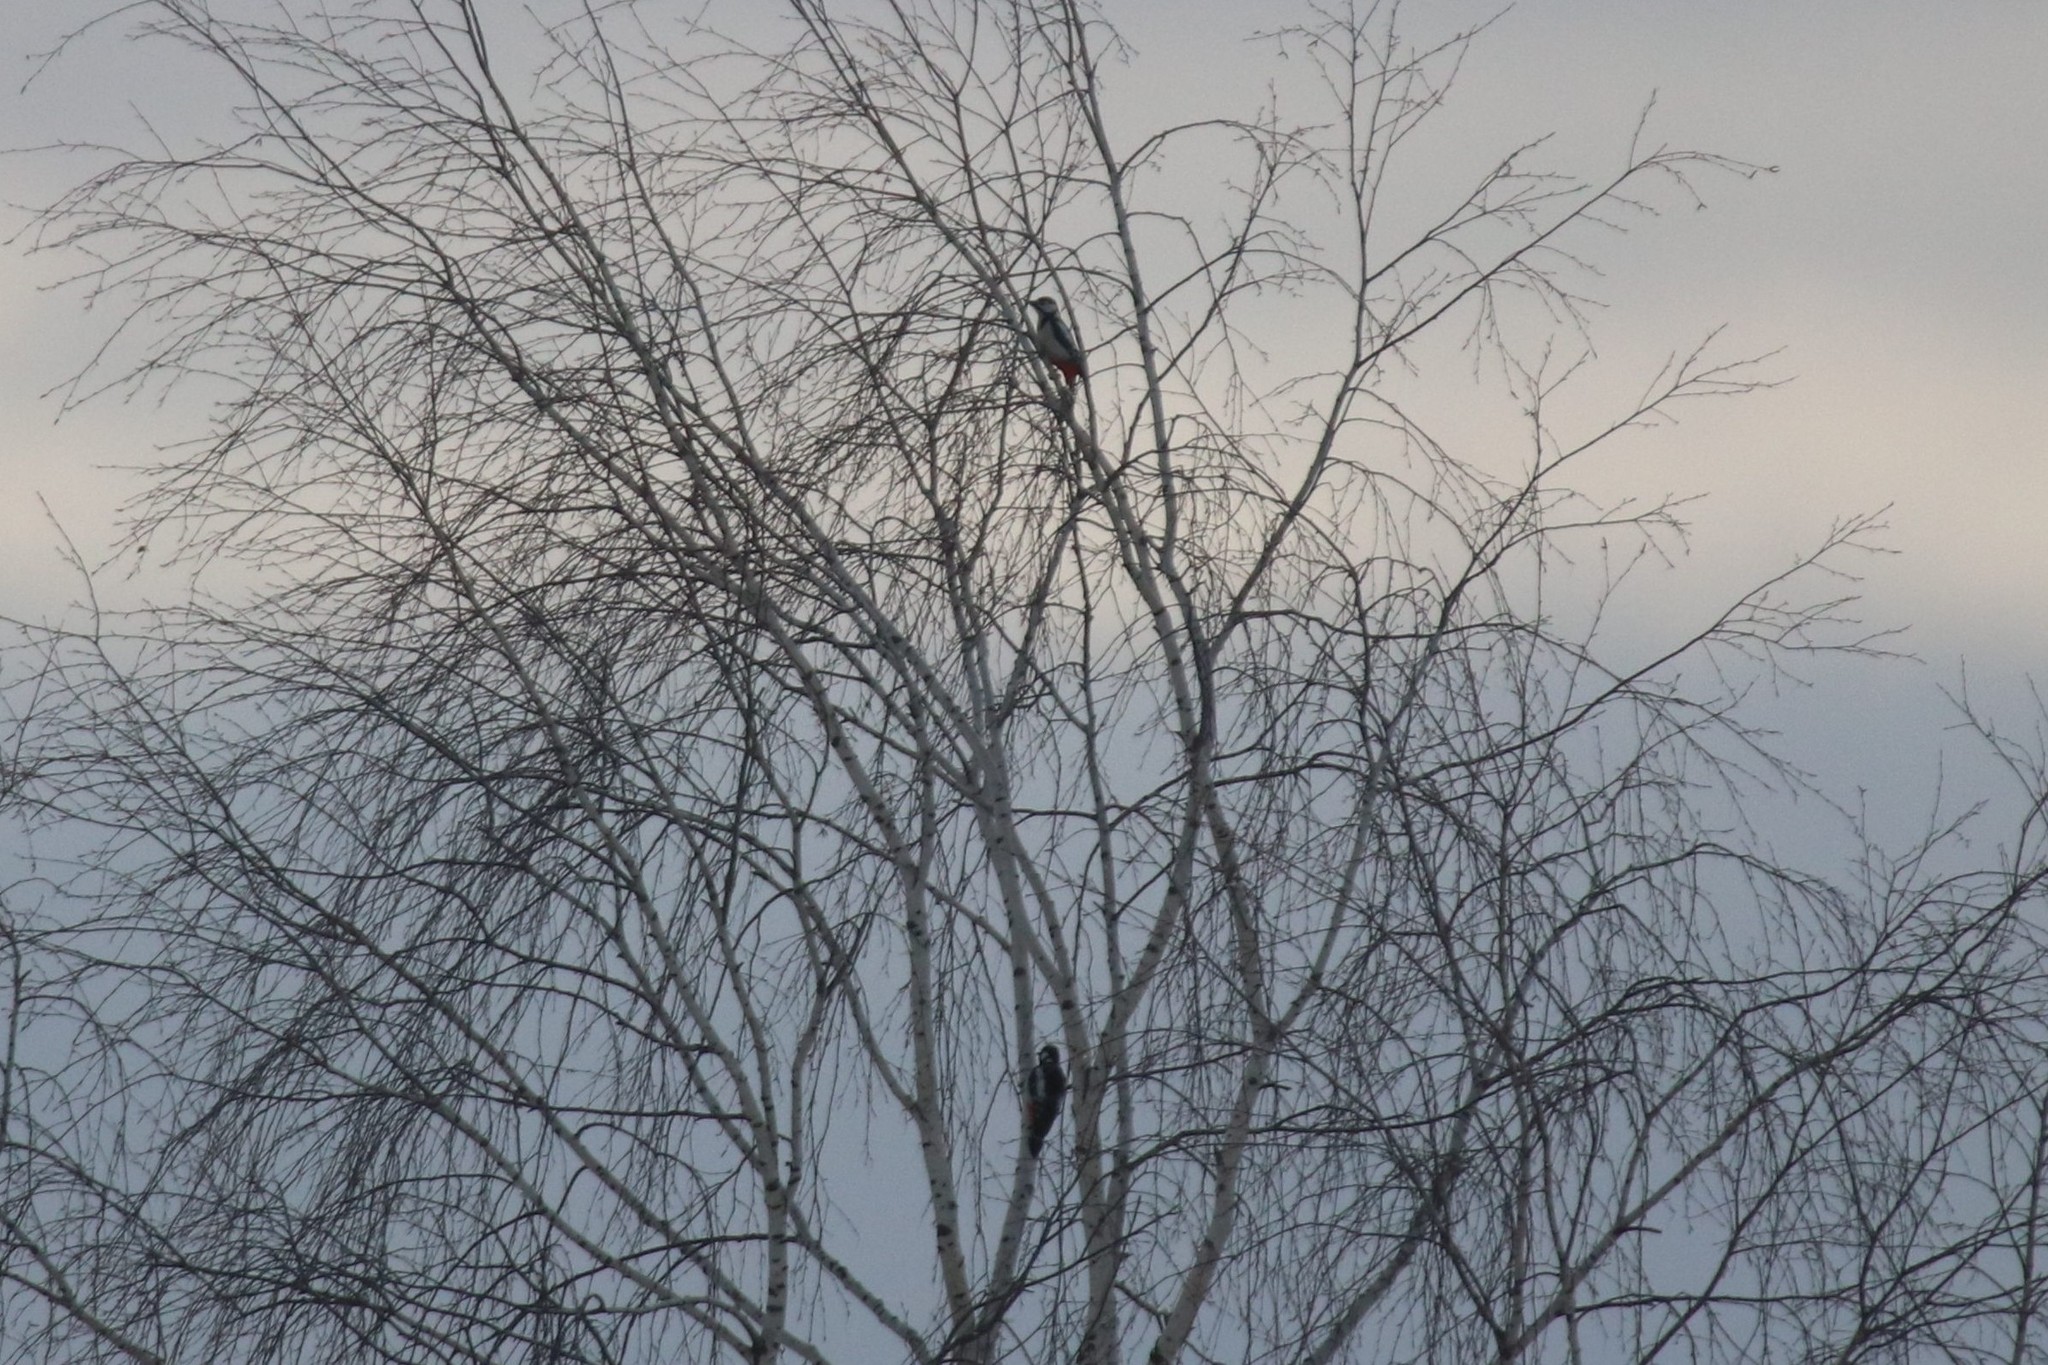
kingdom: Animalia
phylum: Chordata
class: Aves
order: Piciformes
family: Picidae
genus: Dendrocopos
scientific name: Dendrocopos major
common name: Great spotted woodpecker
